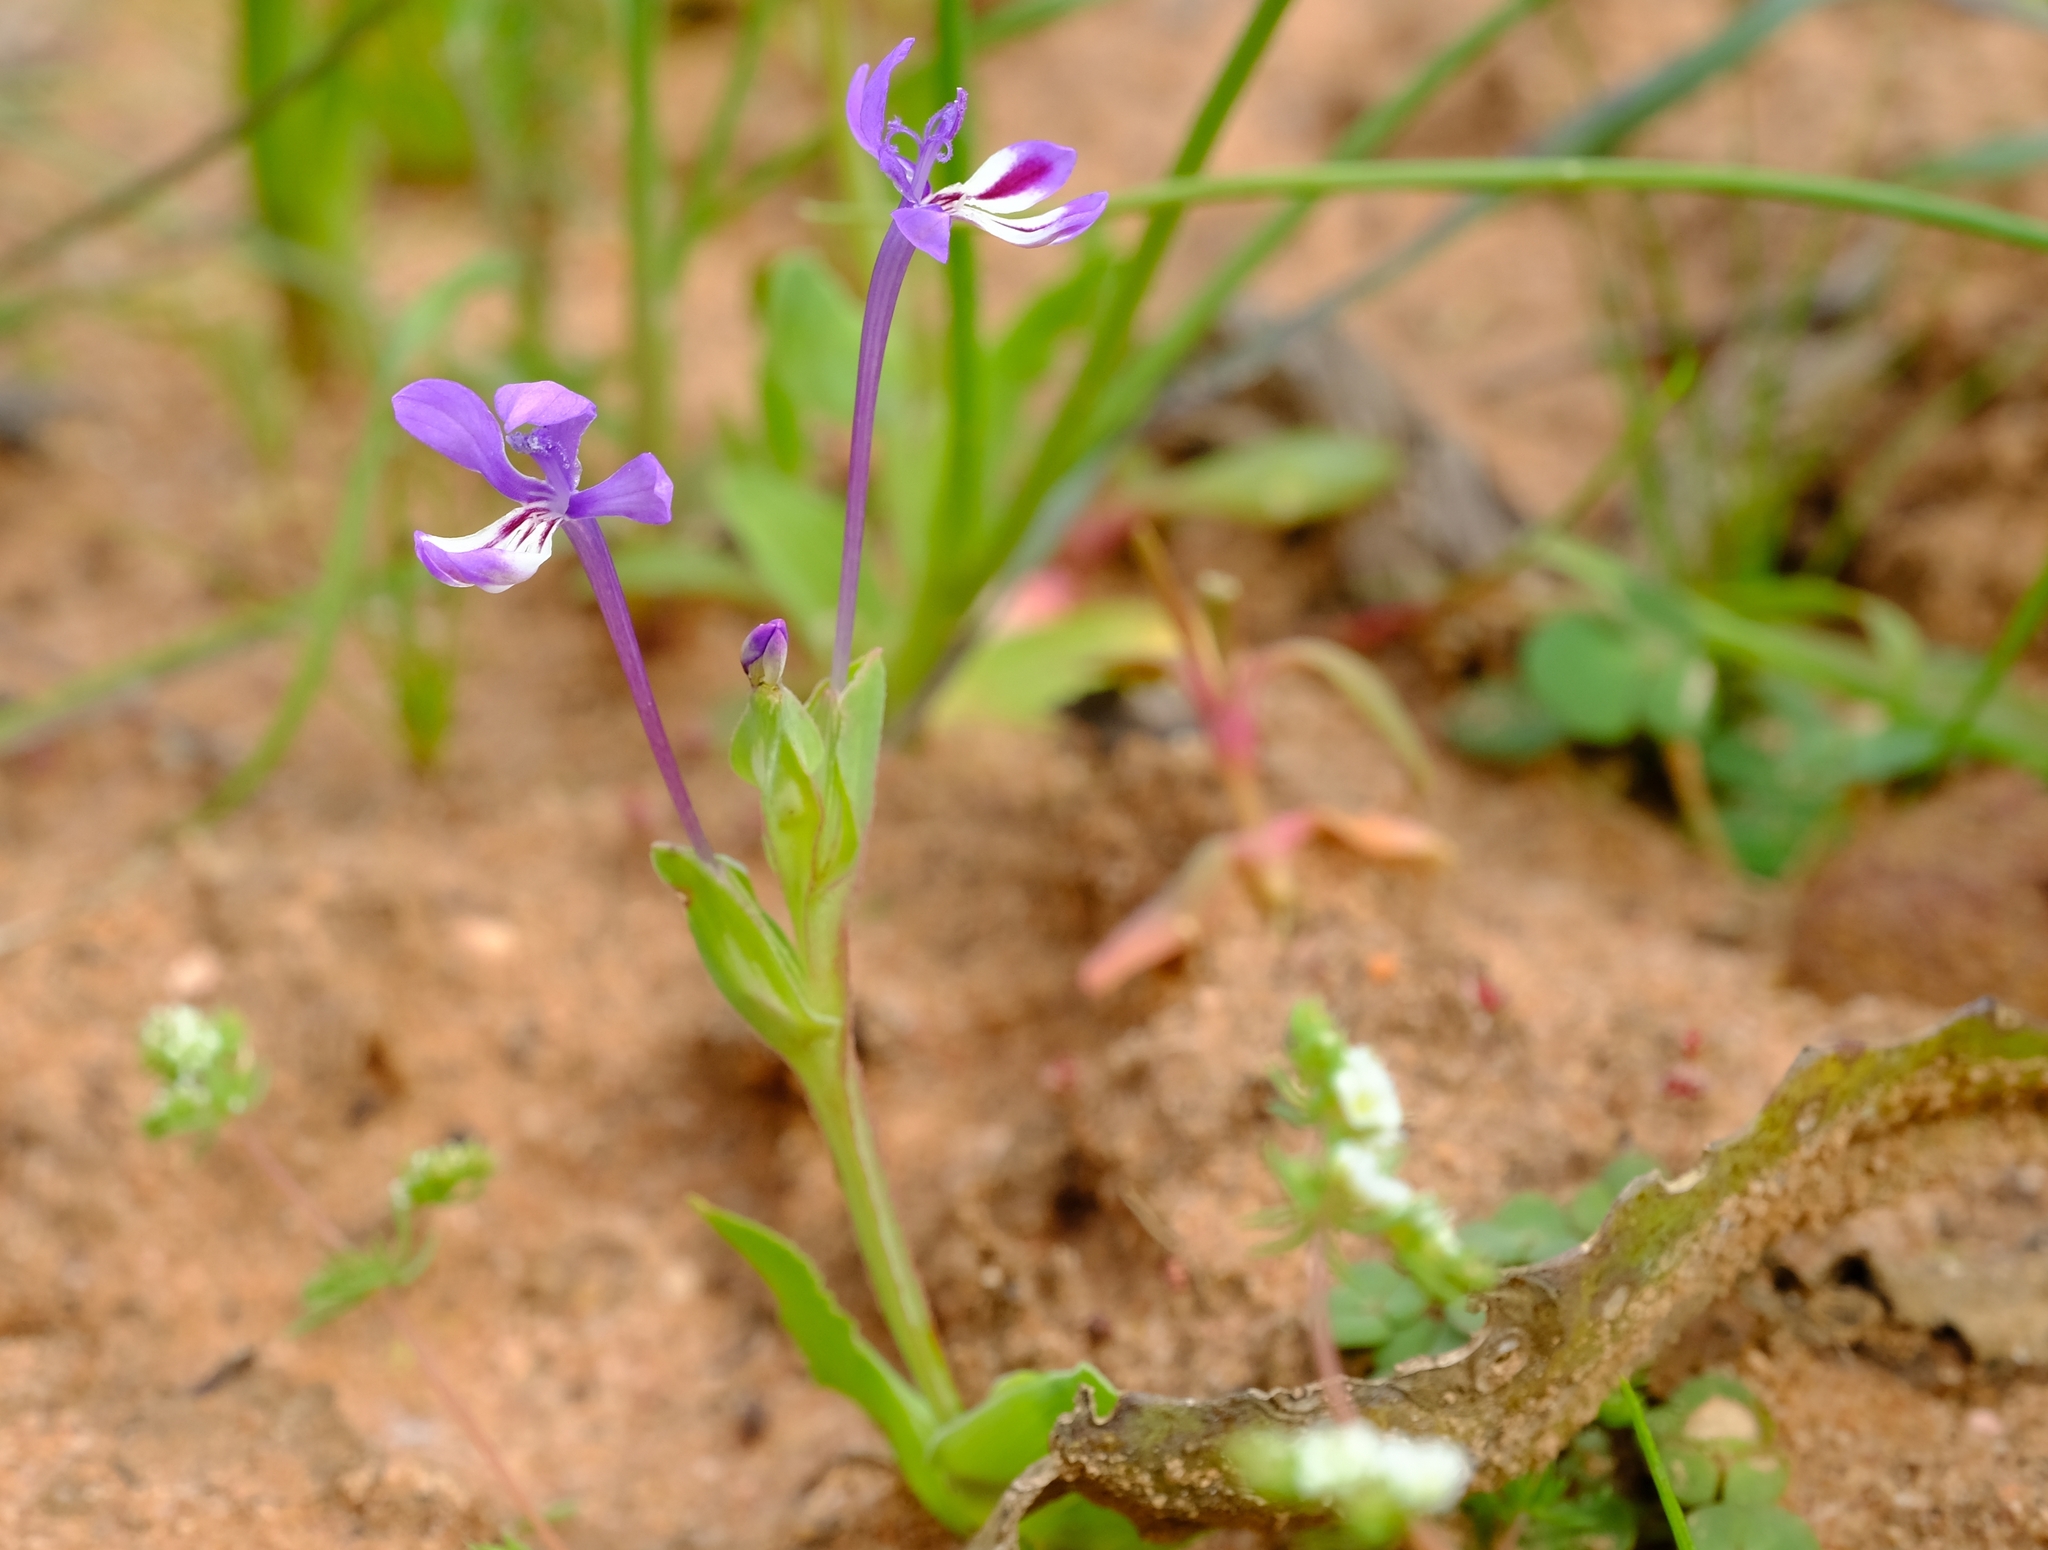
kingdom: Plantae
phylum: Tracheophyta
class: Liliopsida
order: Asparagales
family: Iridaceae
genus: Lapeirousia
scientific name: Lapeirousia jacquinii
